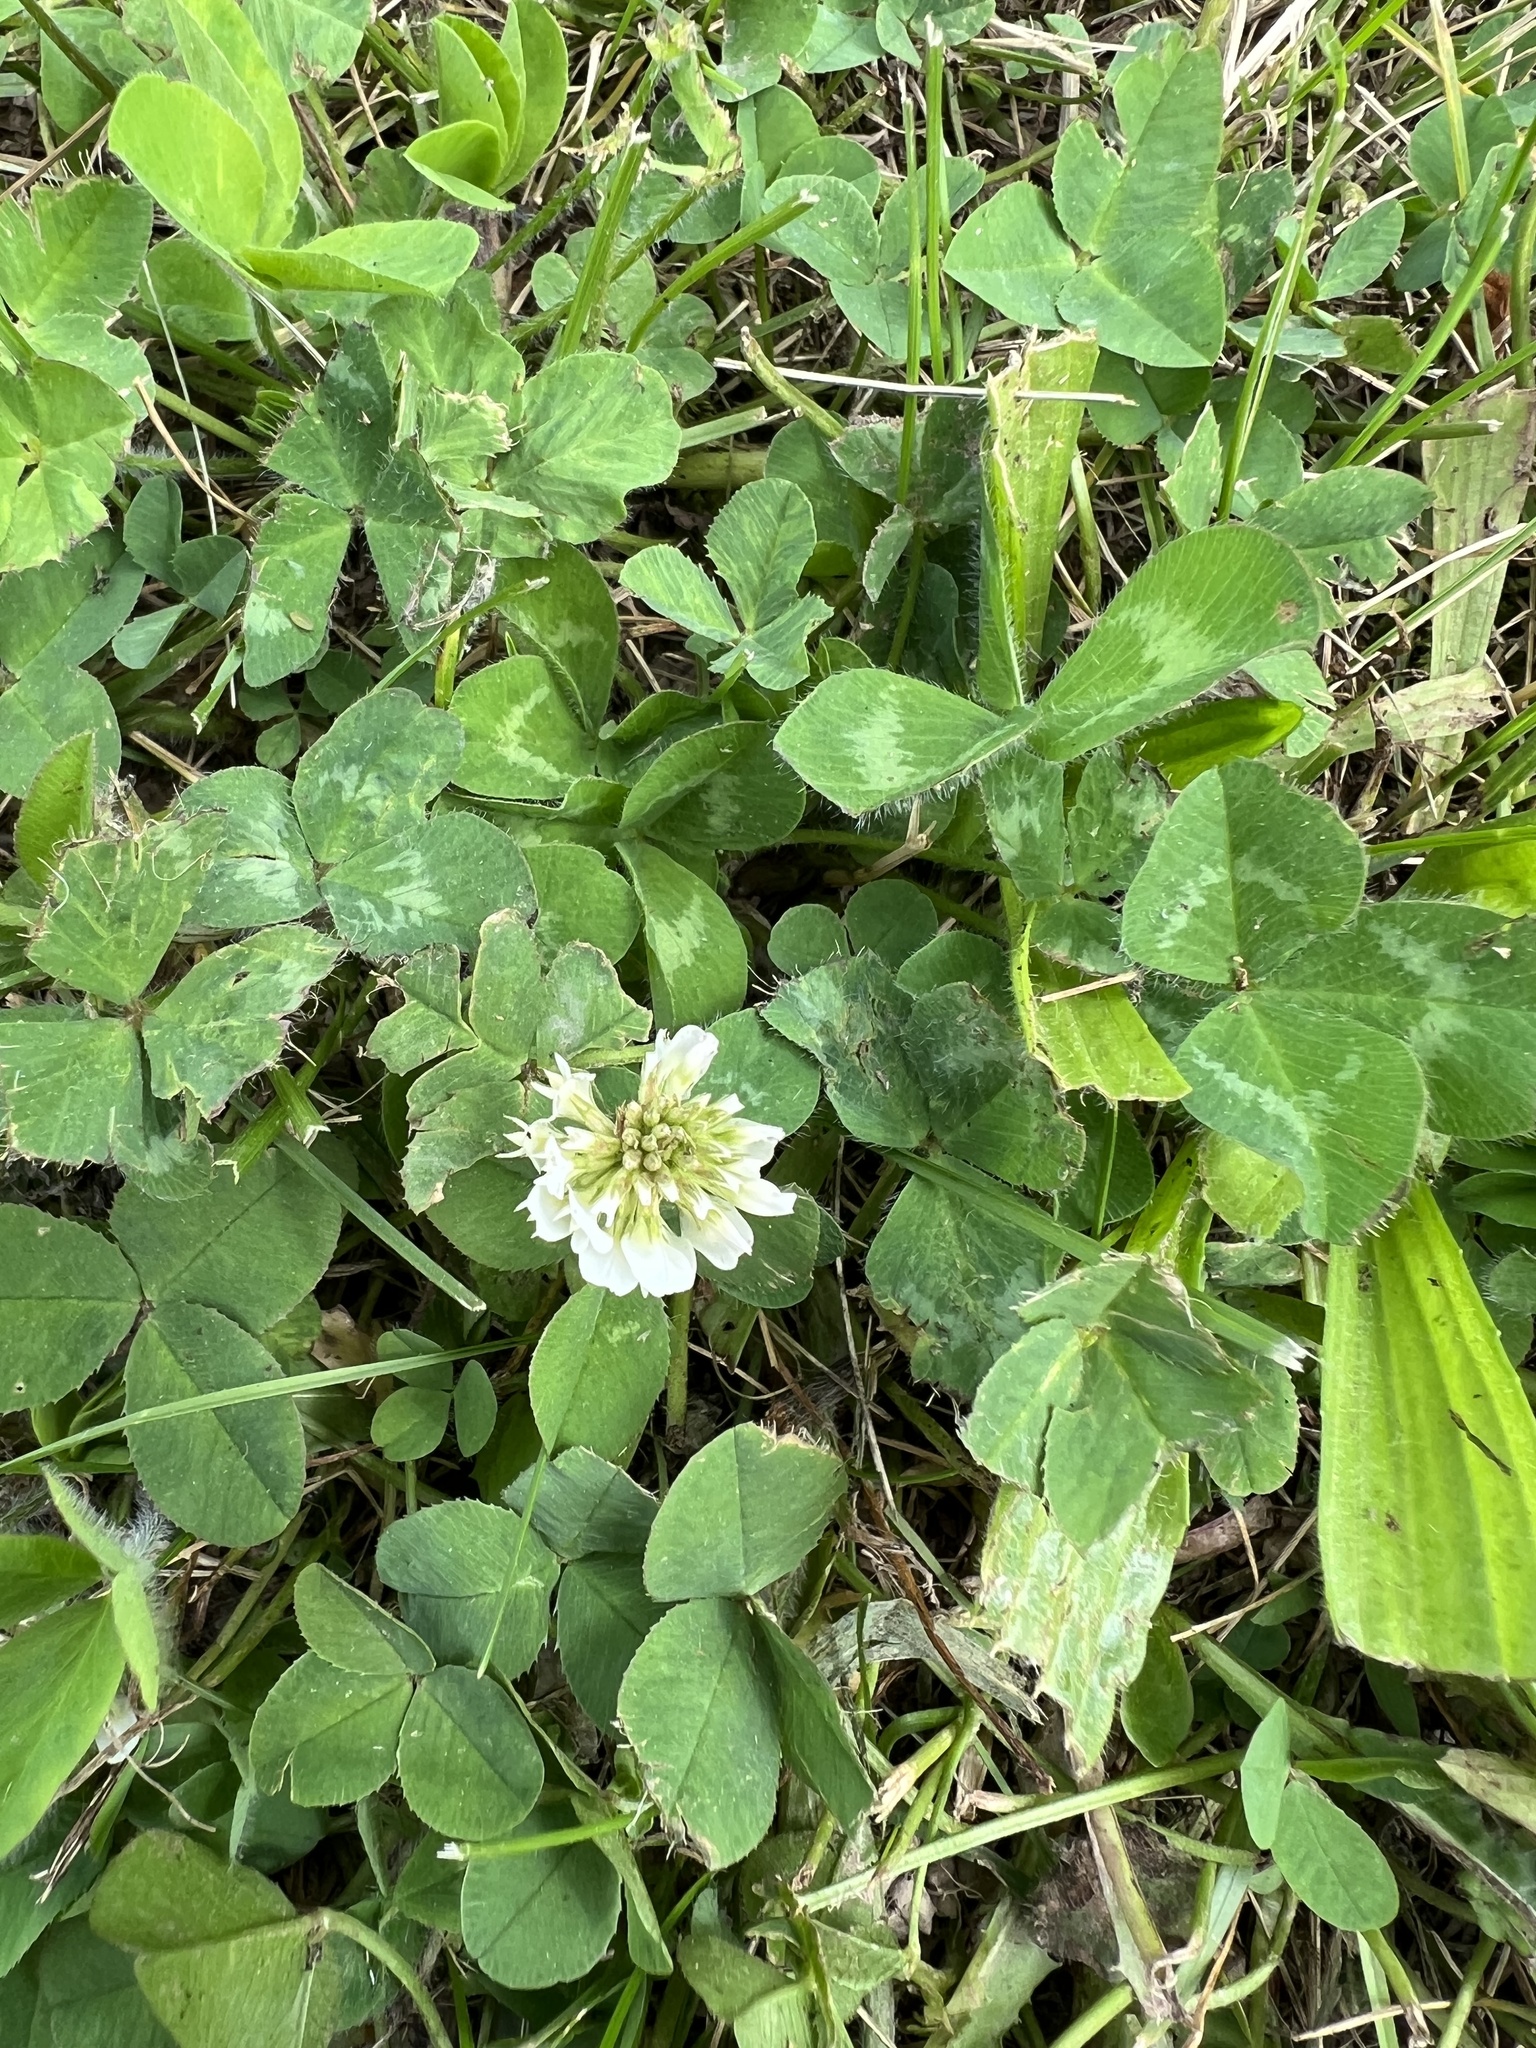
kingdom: Plantae
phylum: Tracheophyta
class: Magnoliopsida
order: Fabales
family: Fabaceae
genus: Trifolium
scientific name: Trifolium repens
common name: White clover
